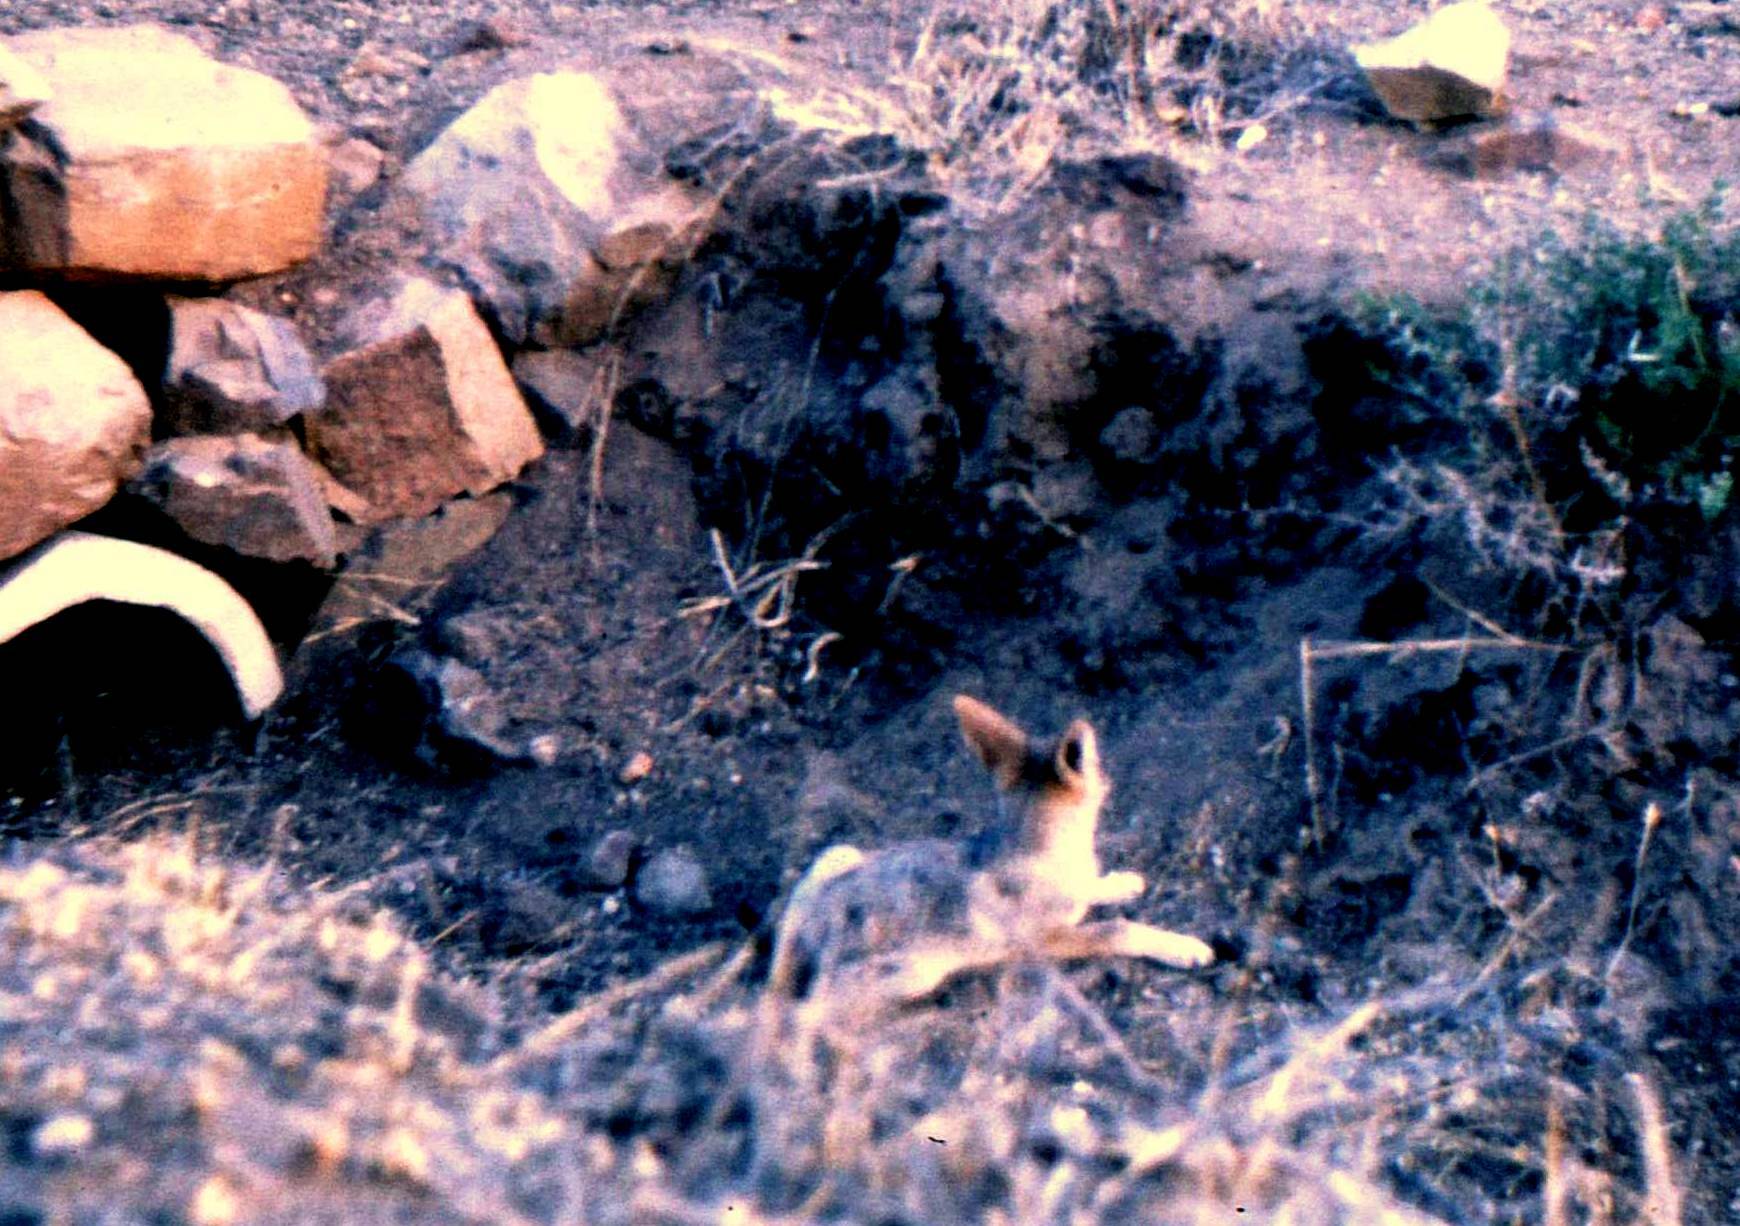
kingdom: Animalia
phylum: Chordata
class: Mammalia
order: Carnivora
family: Canidae
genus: Lupulella
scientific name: Lupulella
